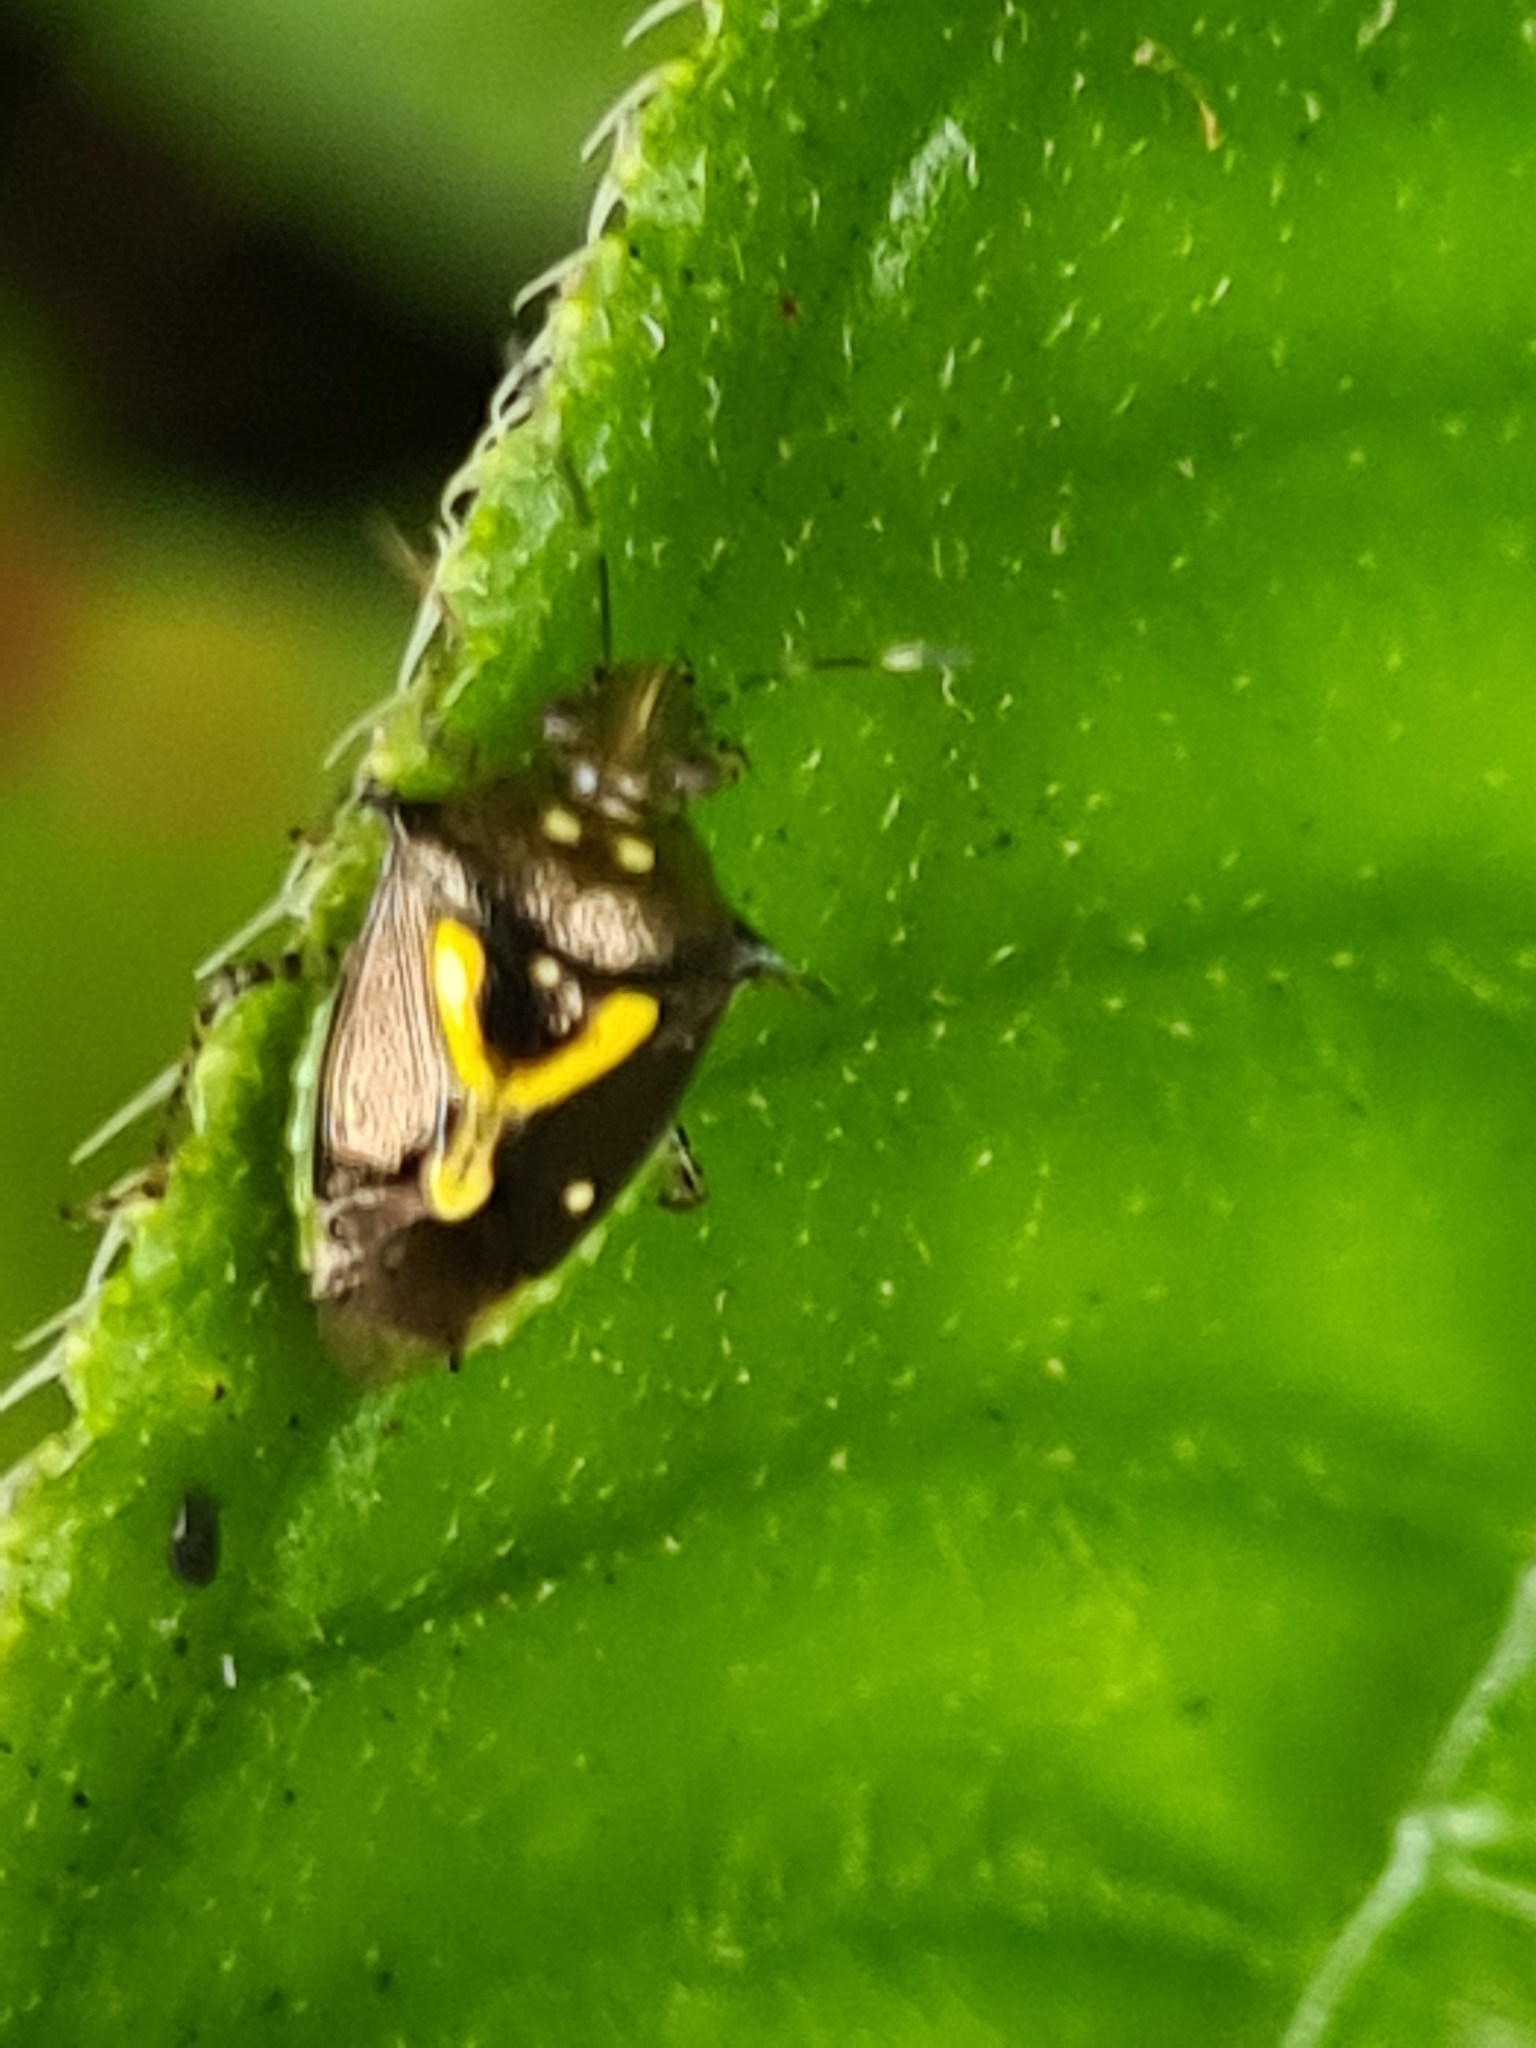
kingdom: Animalia
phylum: Arthropoda
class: Insecta
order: Hemiptera
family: Pentatomidae
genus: Mormidea
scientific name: Mormidea ypsilon
